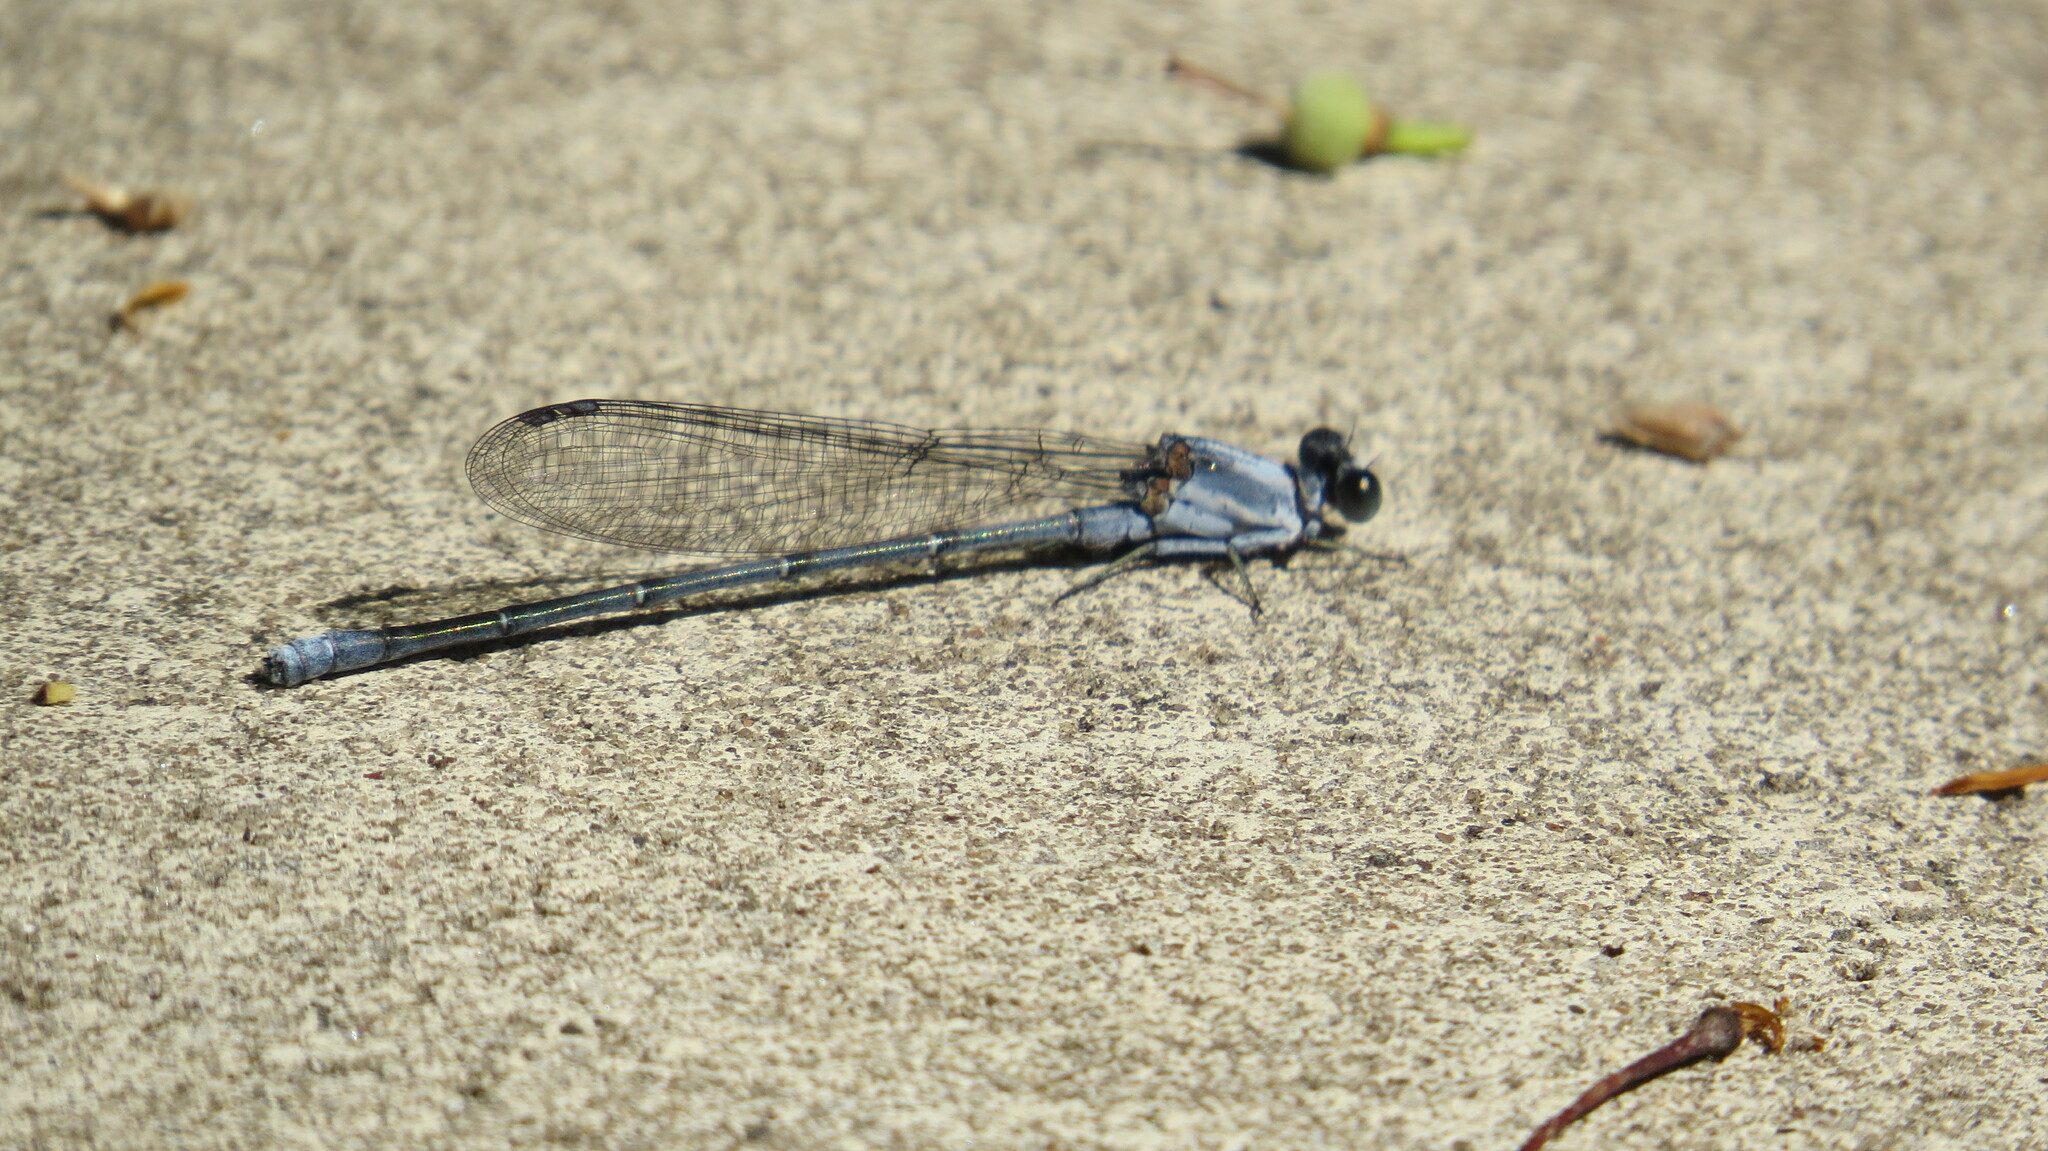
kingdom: Animalia
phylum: Arthropoda
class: Insecta
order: Odonata
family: Coenagrionidae
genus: Argia
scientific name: Argia moesta
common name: Powdered dancer
